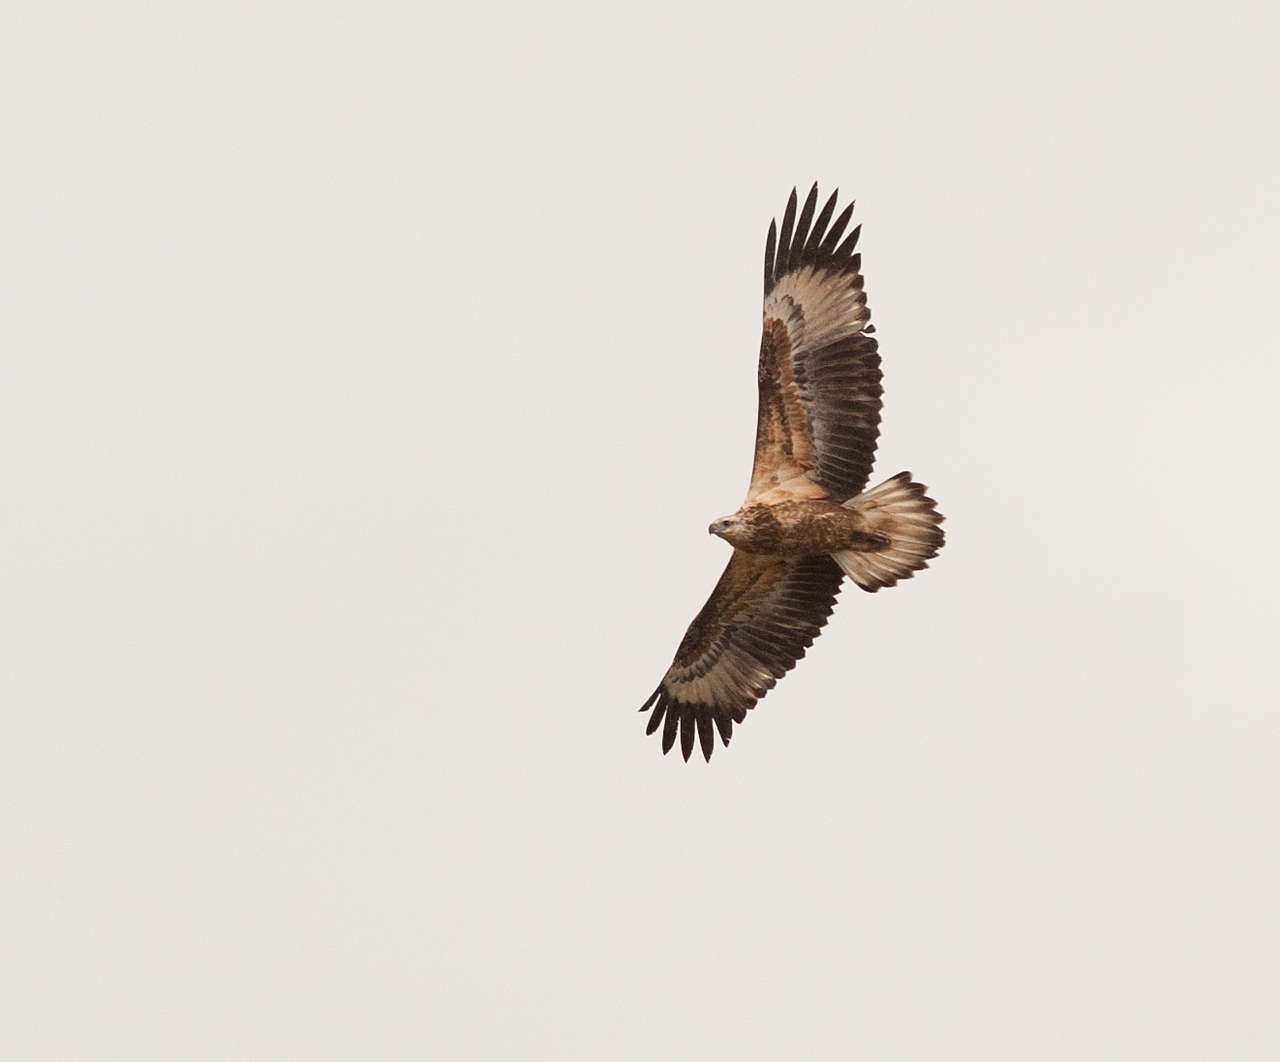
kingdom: Animalia
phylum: Chordata
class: Aves
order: Accipitriformes
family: Accipitridae
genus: Haliaeetus
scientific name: Haliaeetus leucogaster
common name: White-bellied sea eagle
